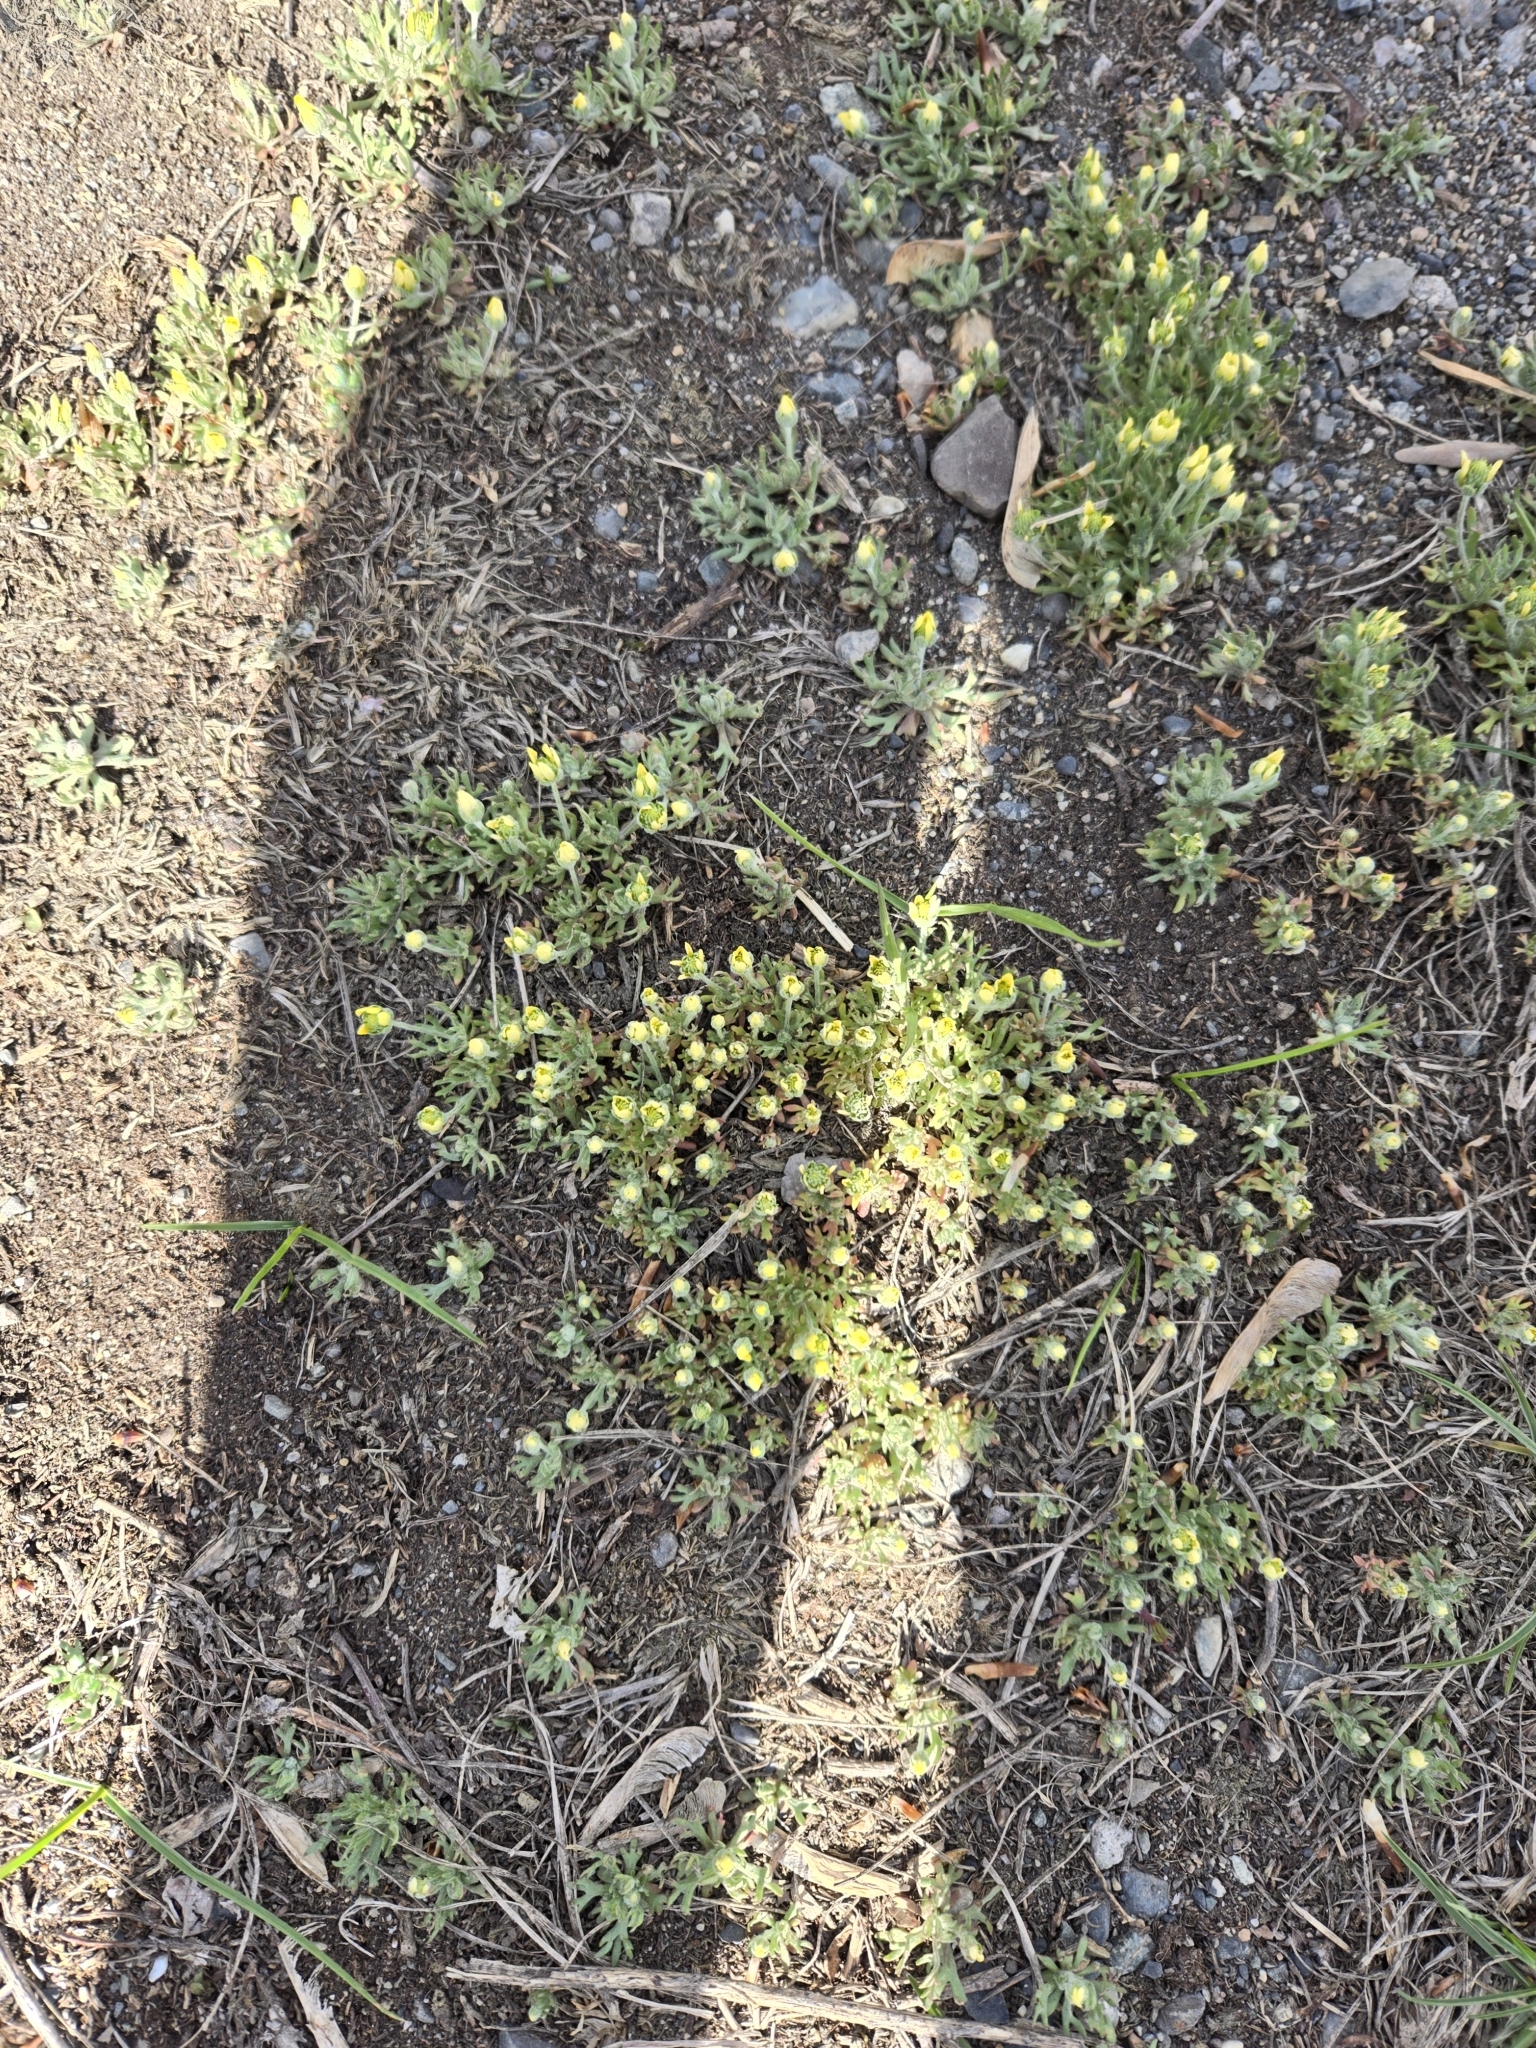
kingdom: Plantae
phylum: Tracheophyta
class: Magnoliopsida
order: Ranunculales
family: Ranunculaceae
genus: Ceratocephala
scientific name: Ceratocephala orthoceras
